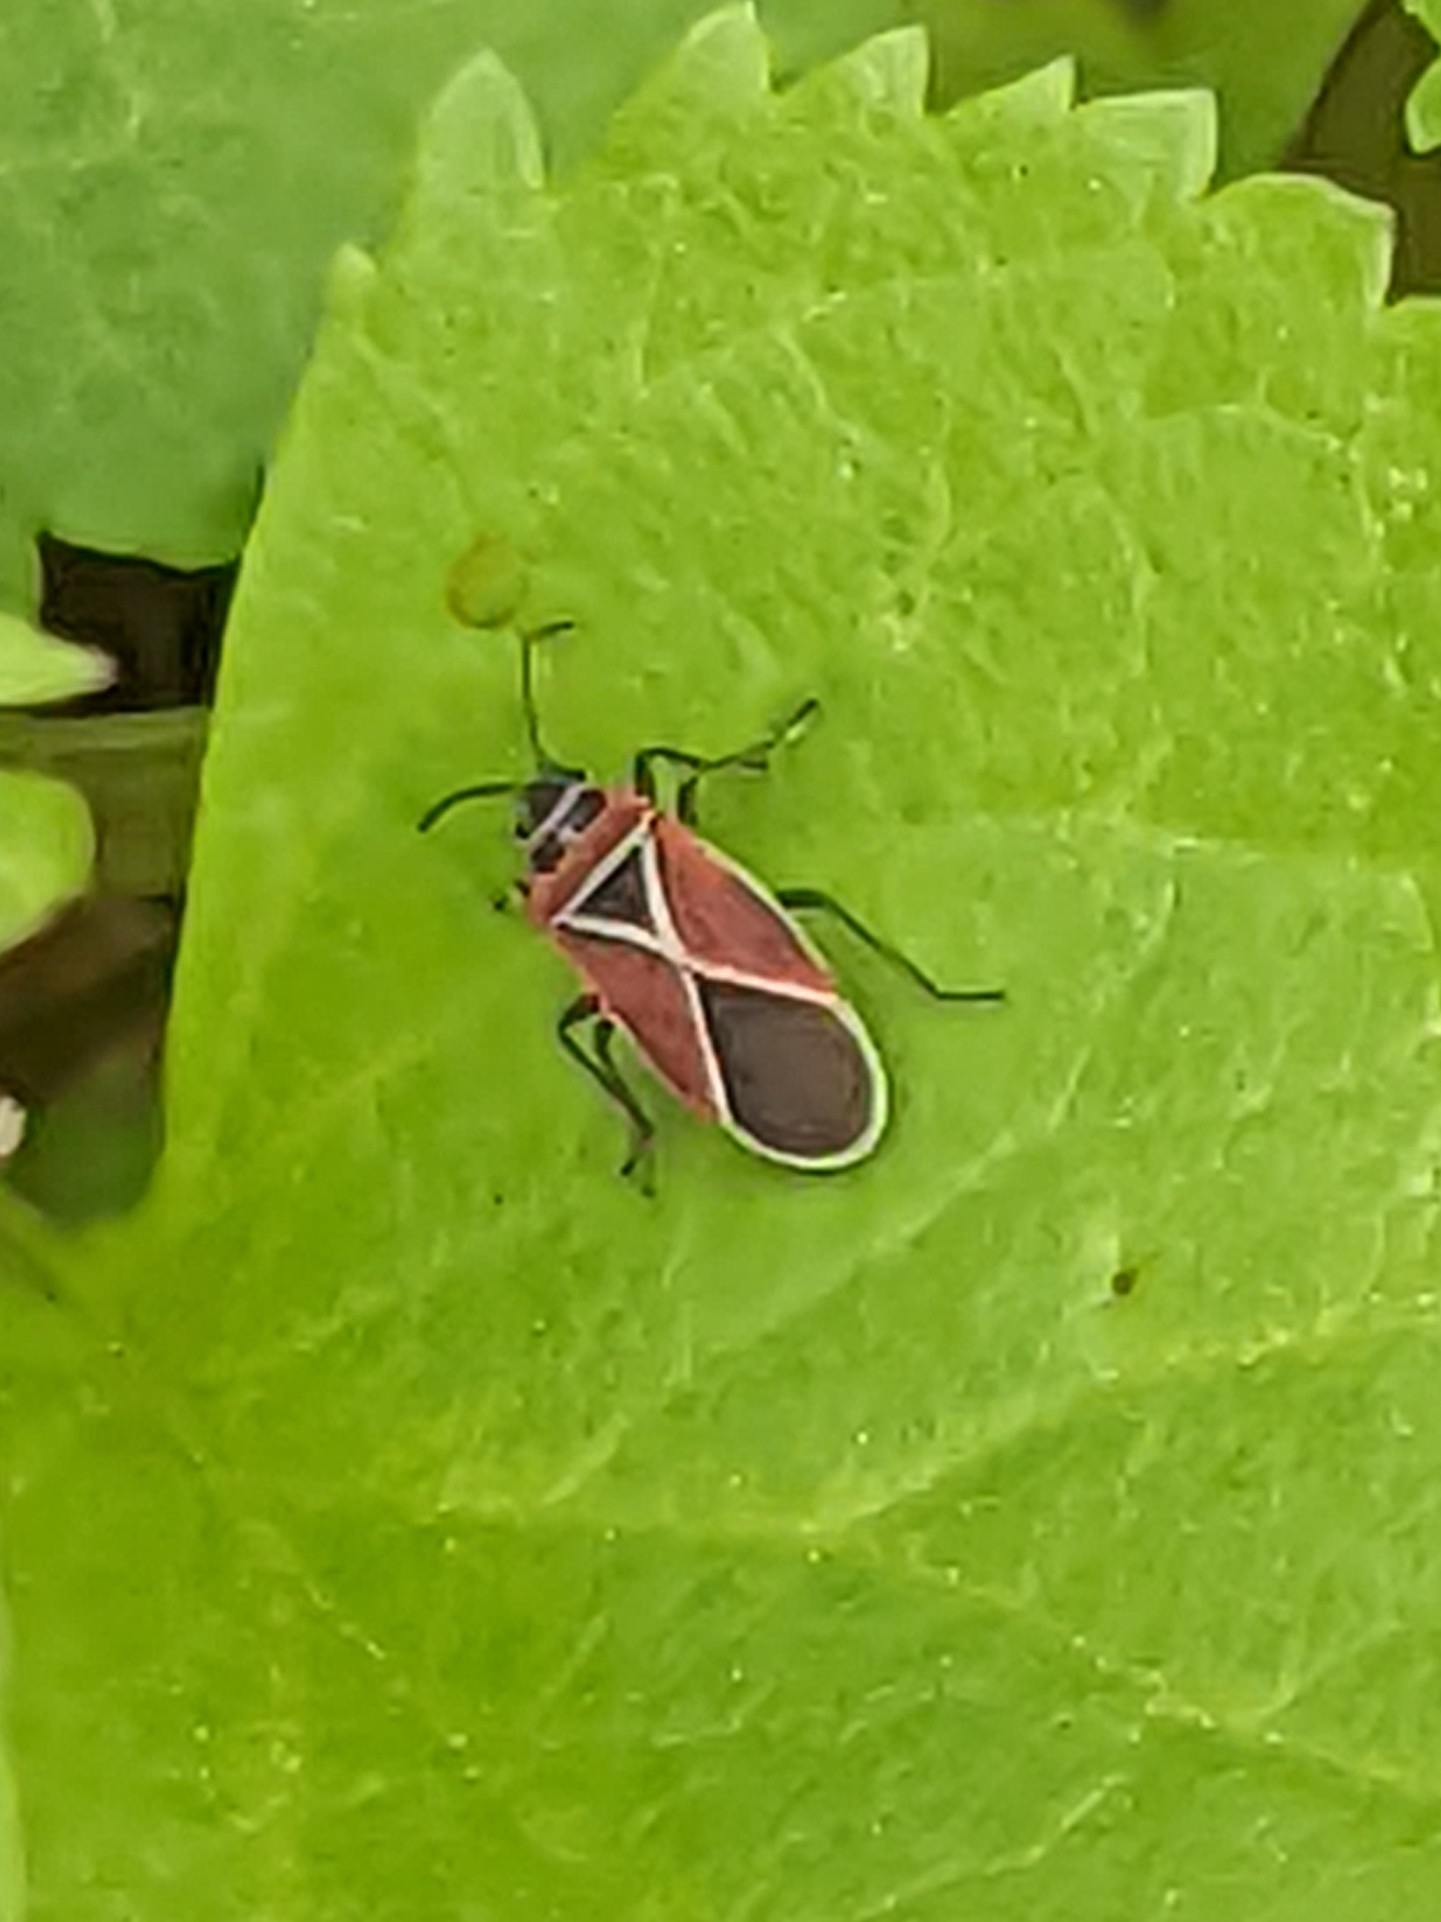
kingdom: Animalia
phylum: Arthropoda
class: Insecta
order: Hemiptera
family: Lygaeidae
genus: Neacoryphus
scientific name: Neacoryphus bicrucis
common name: Lygaeid bug
